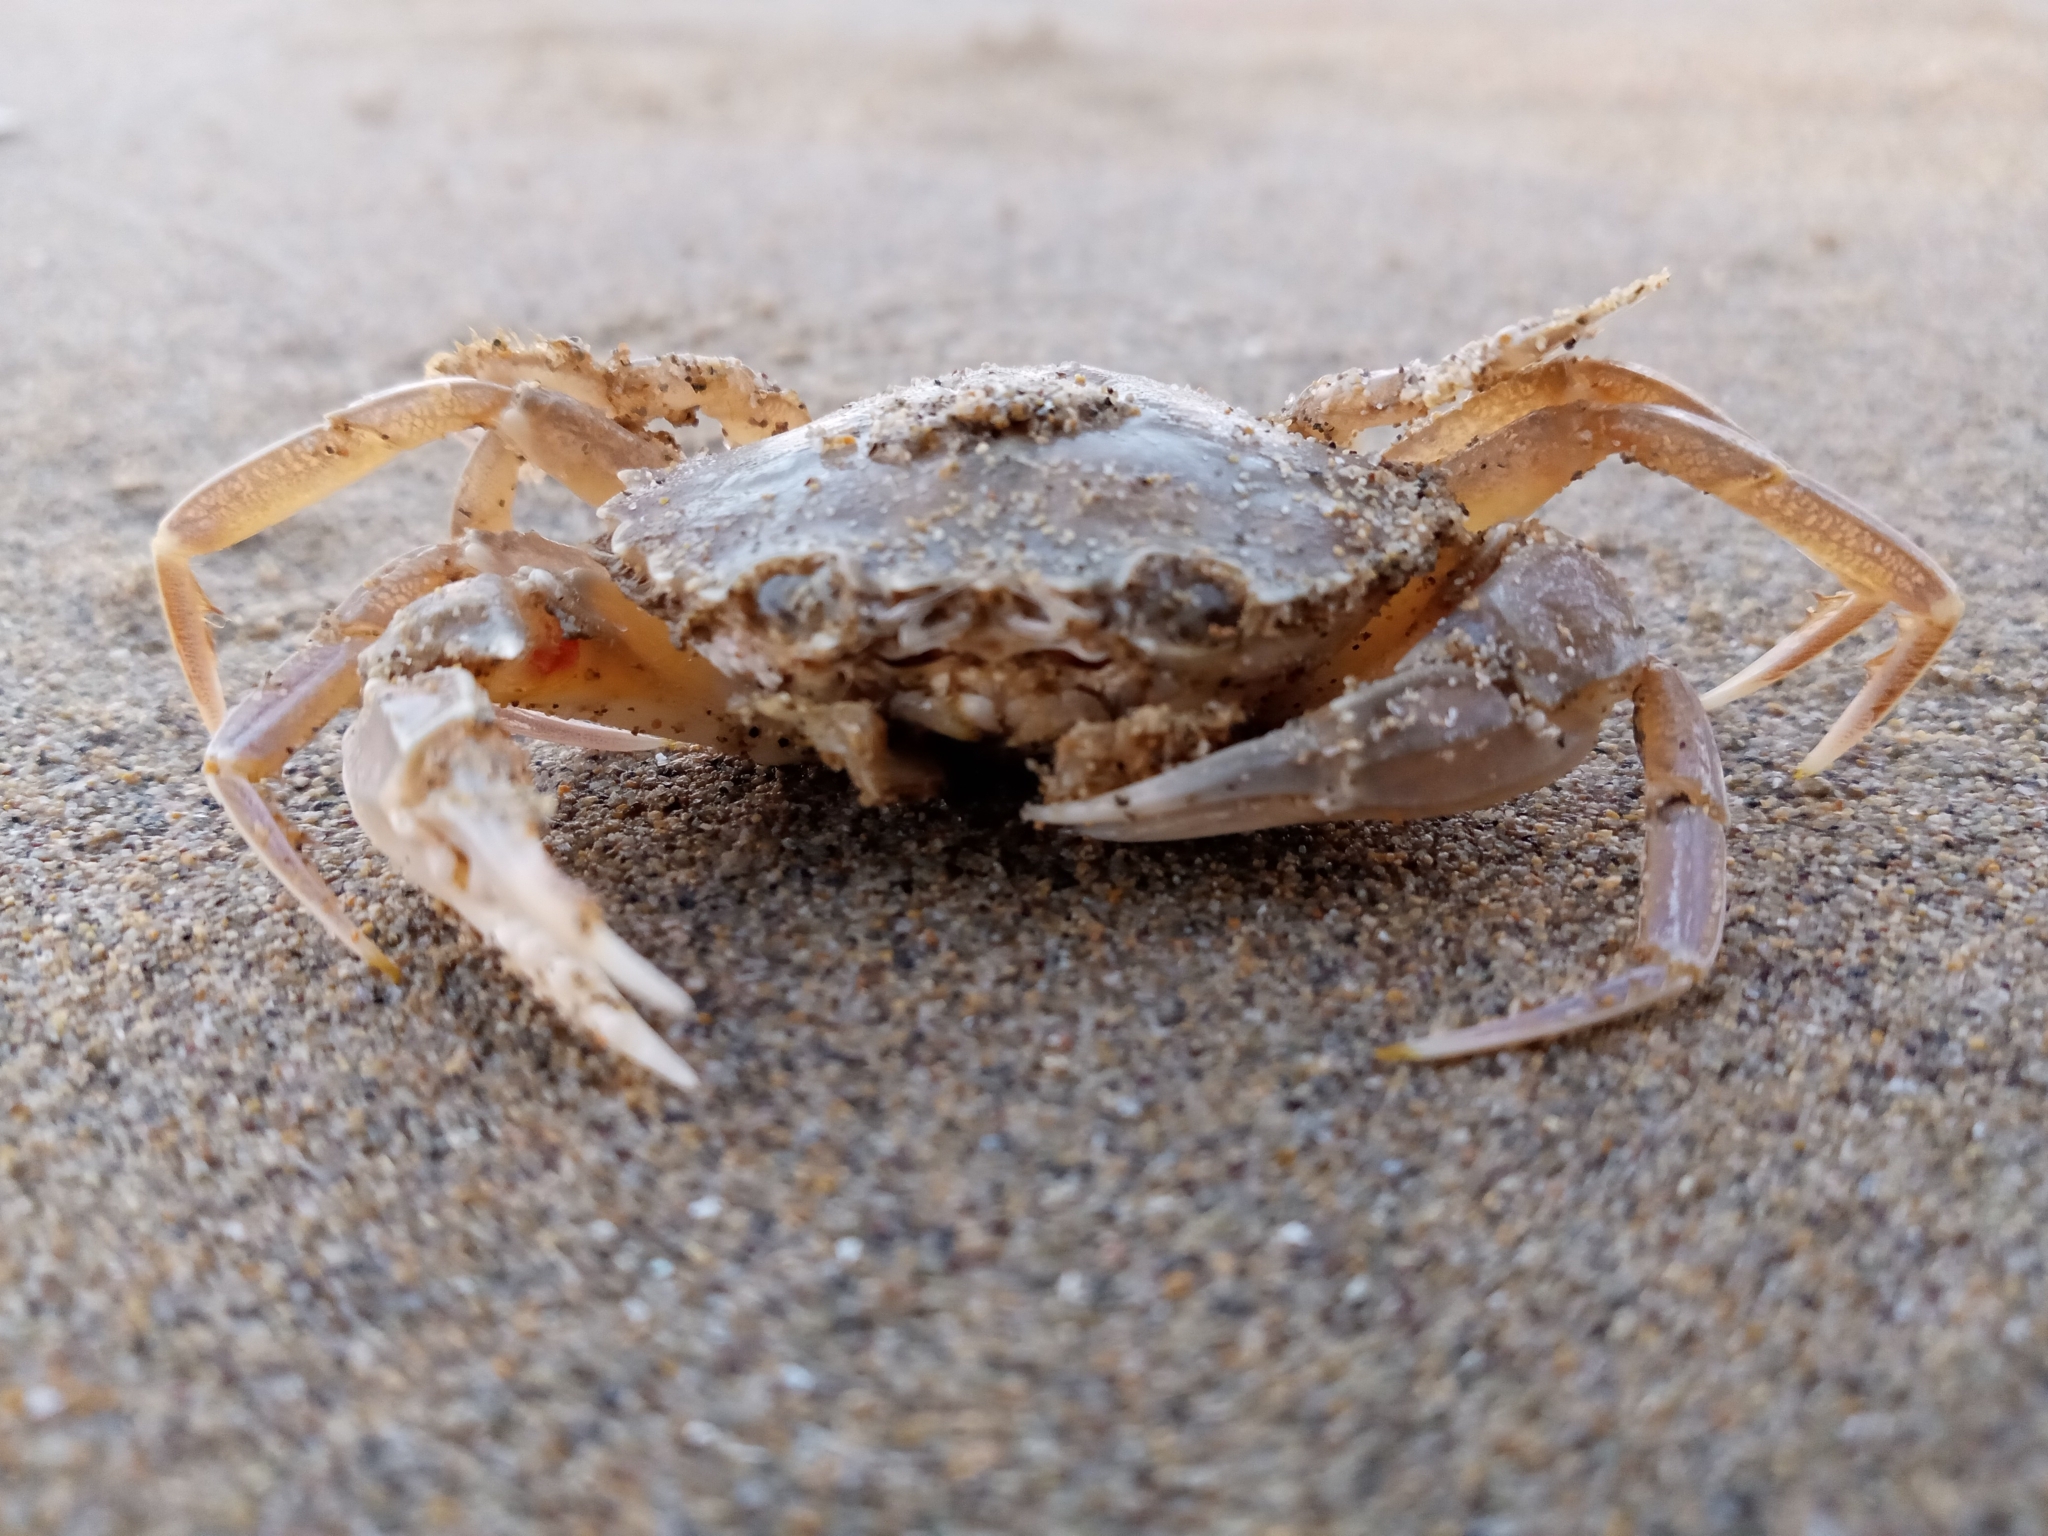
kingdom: Animalia
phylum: Arthropoda
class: Malacostraca
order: Decapoda
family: Polybiidae
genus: Liocarcinus
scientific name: Liocarcinus vernalis
